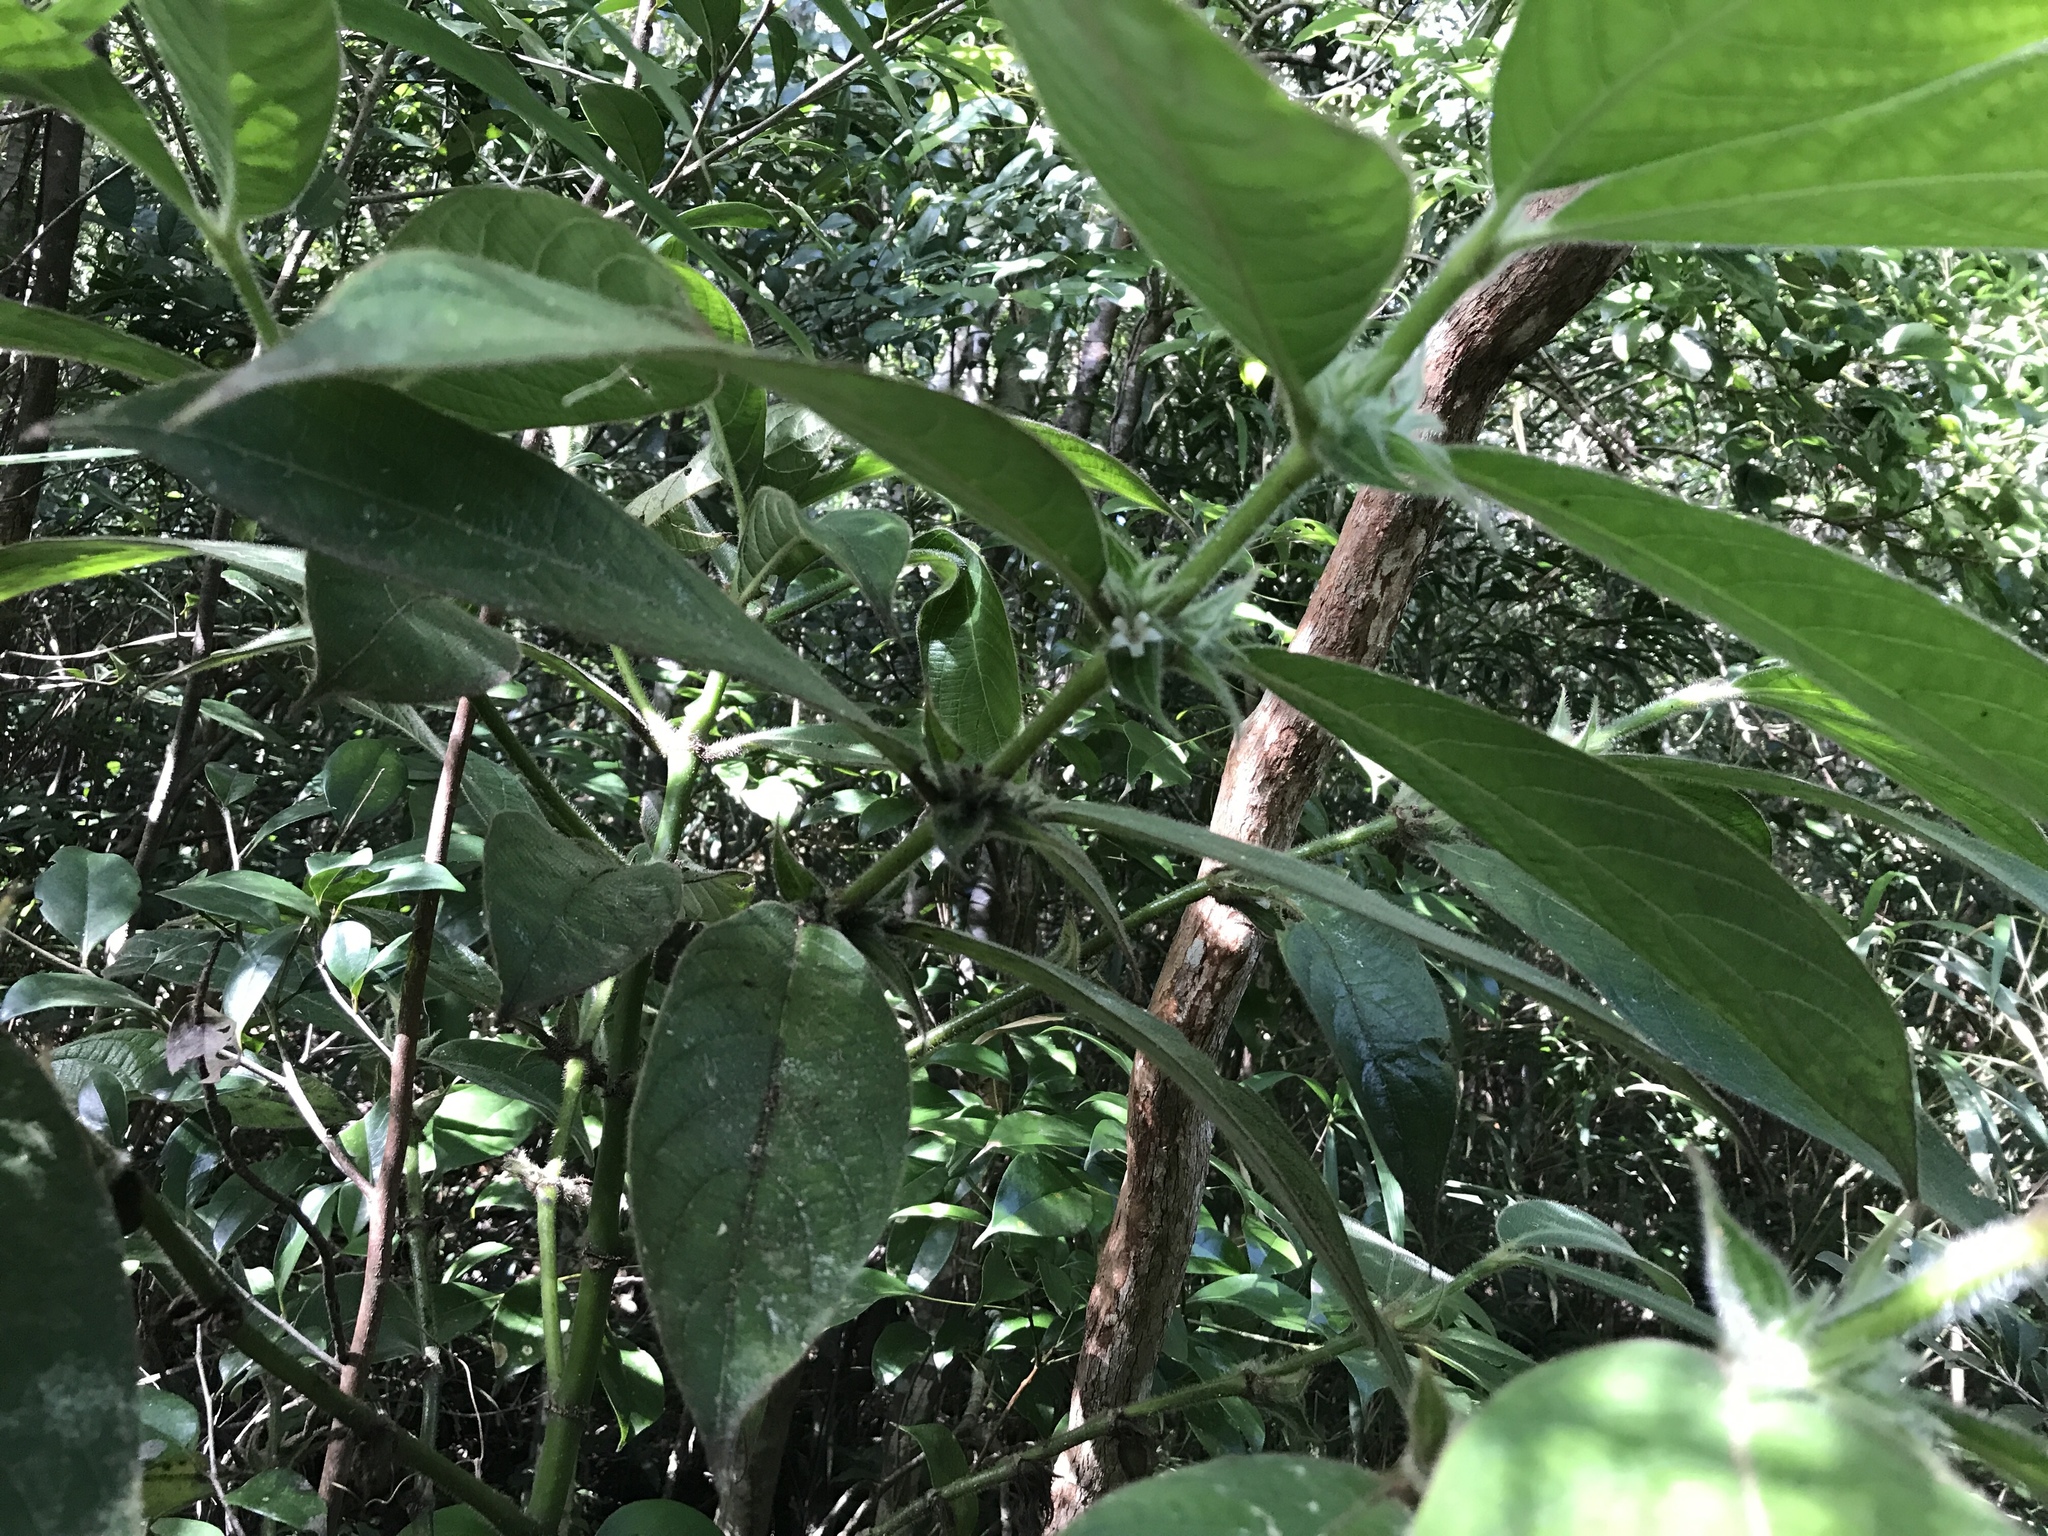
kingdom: Plantae
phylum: Tracheophyta
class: Magnoliopsida
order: Gentianales
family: Rubiaceae
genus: Lasianthus
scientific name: Lasianthus hirsutus
